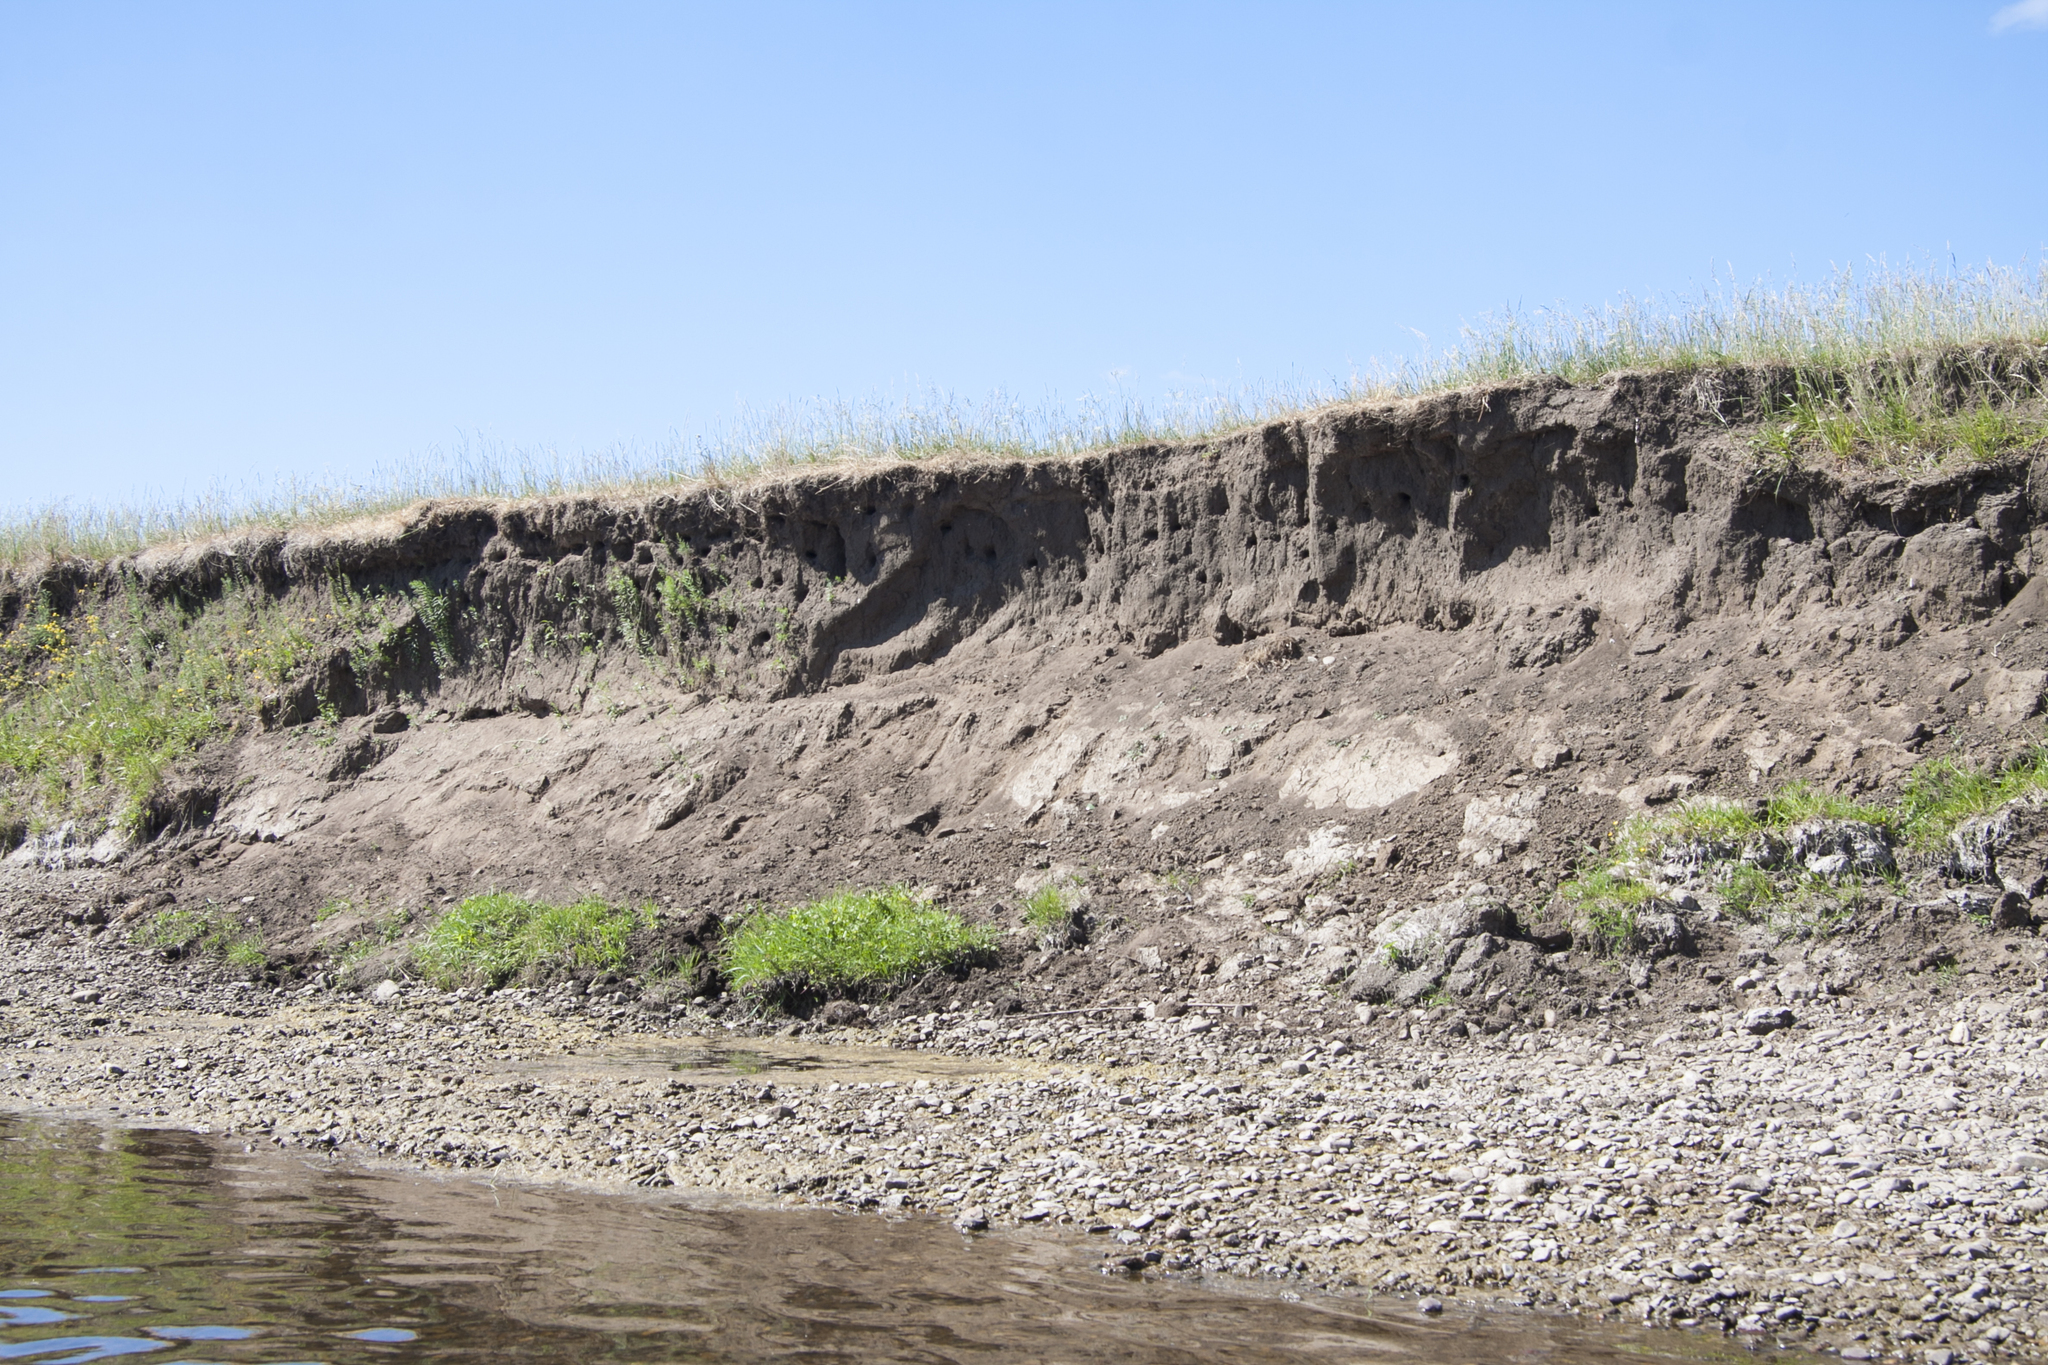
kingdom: Animalia
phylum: Chordata
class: Aves
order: Passeriformes
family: Hirundinidae
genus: Riparia
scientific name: Riparia riparia
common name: Sand martin
